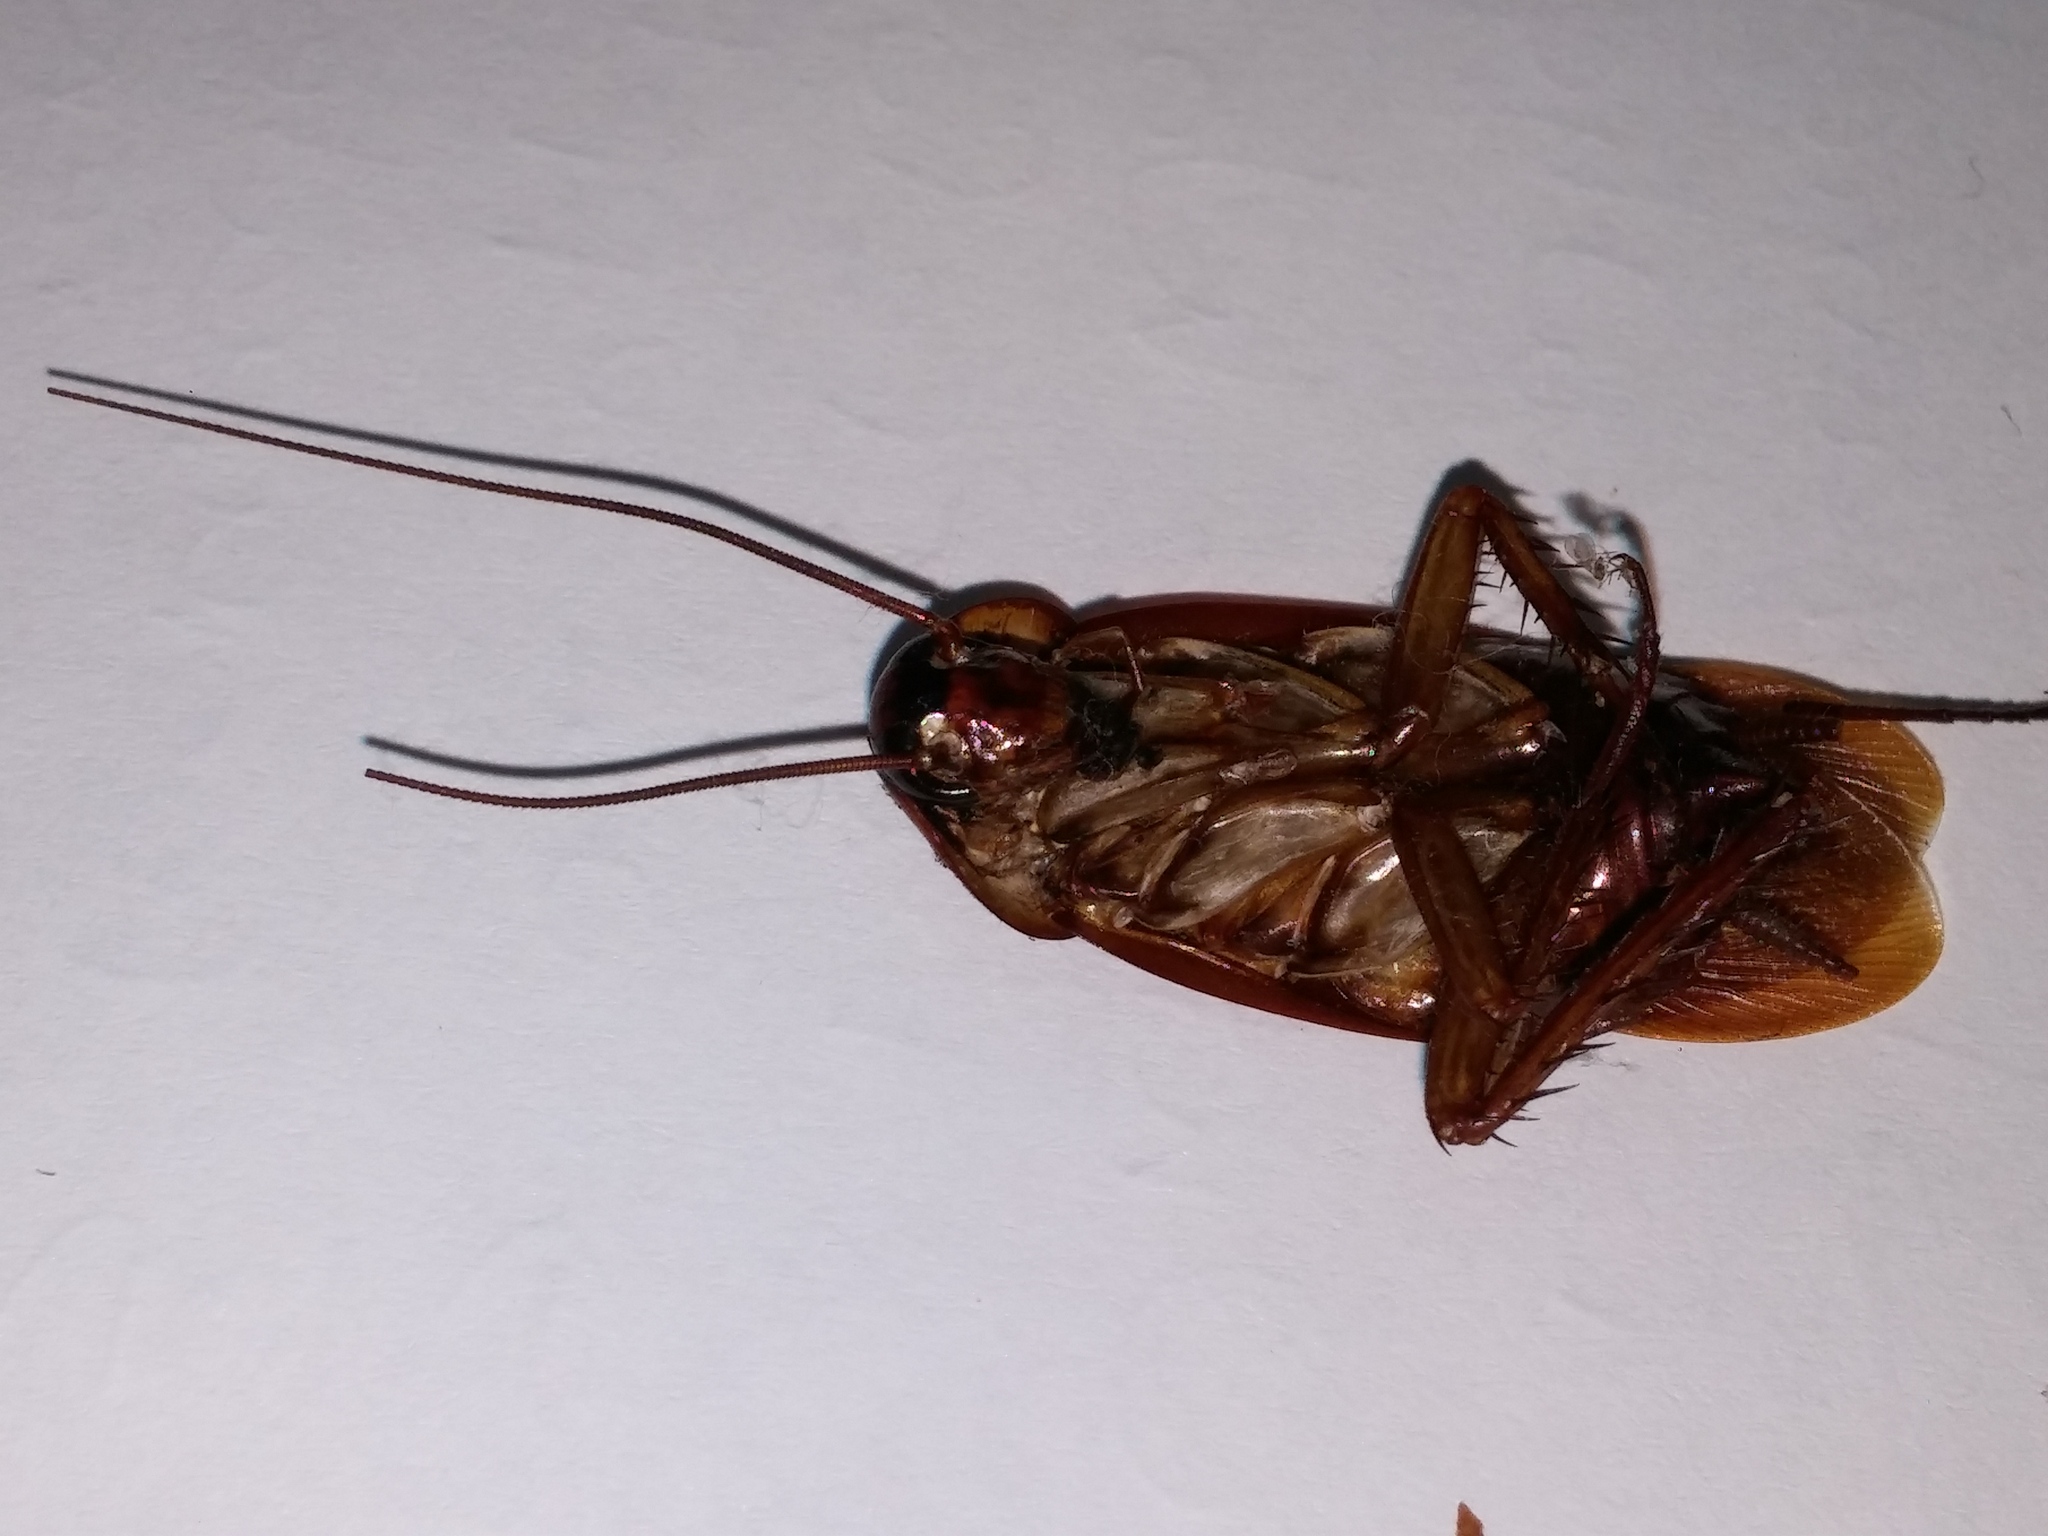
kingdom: Animalia
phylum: Arthropoda
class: Insecta
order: Blattodea
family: Blattidae
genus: Periplaneta
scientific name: Periplaneta americana
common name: American cockroach
